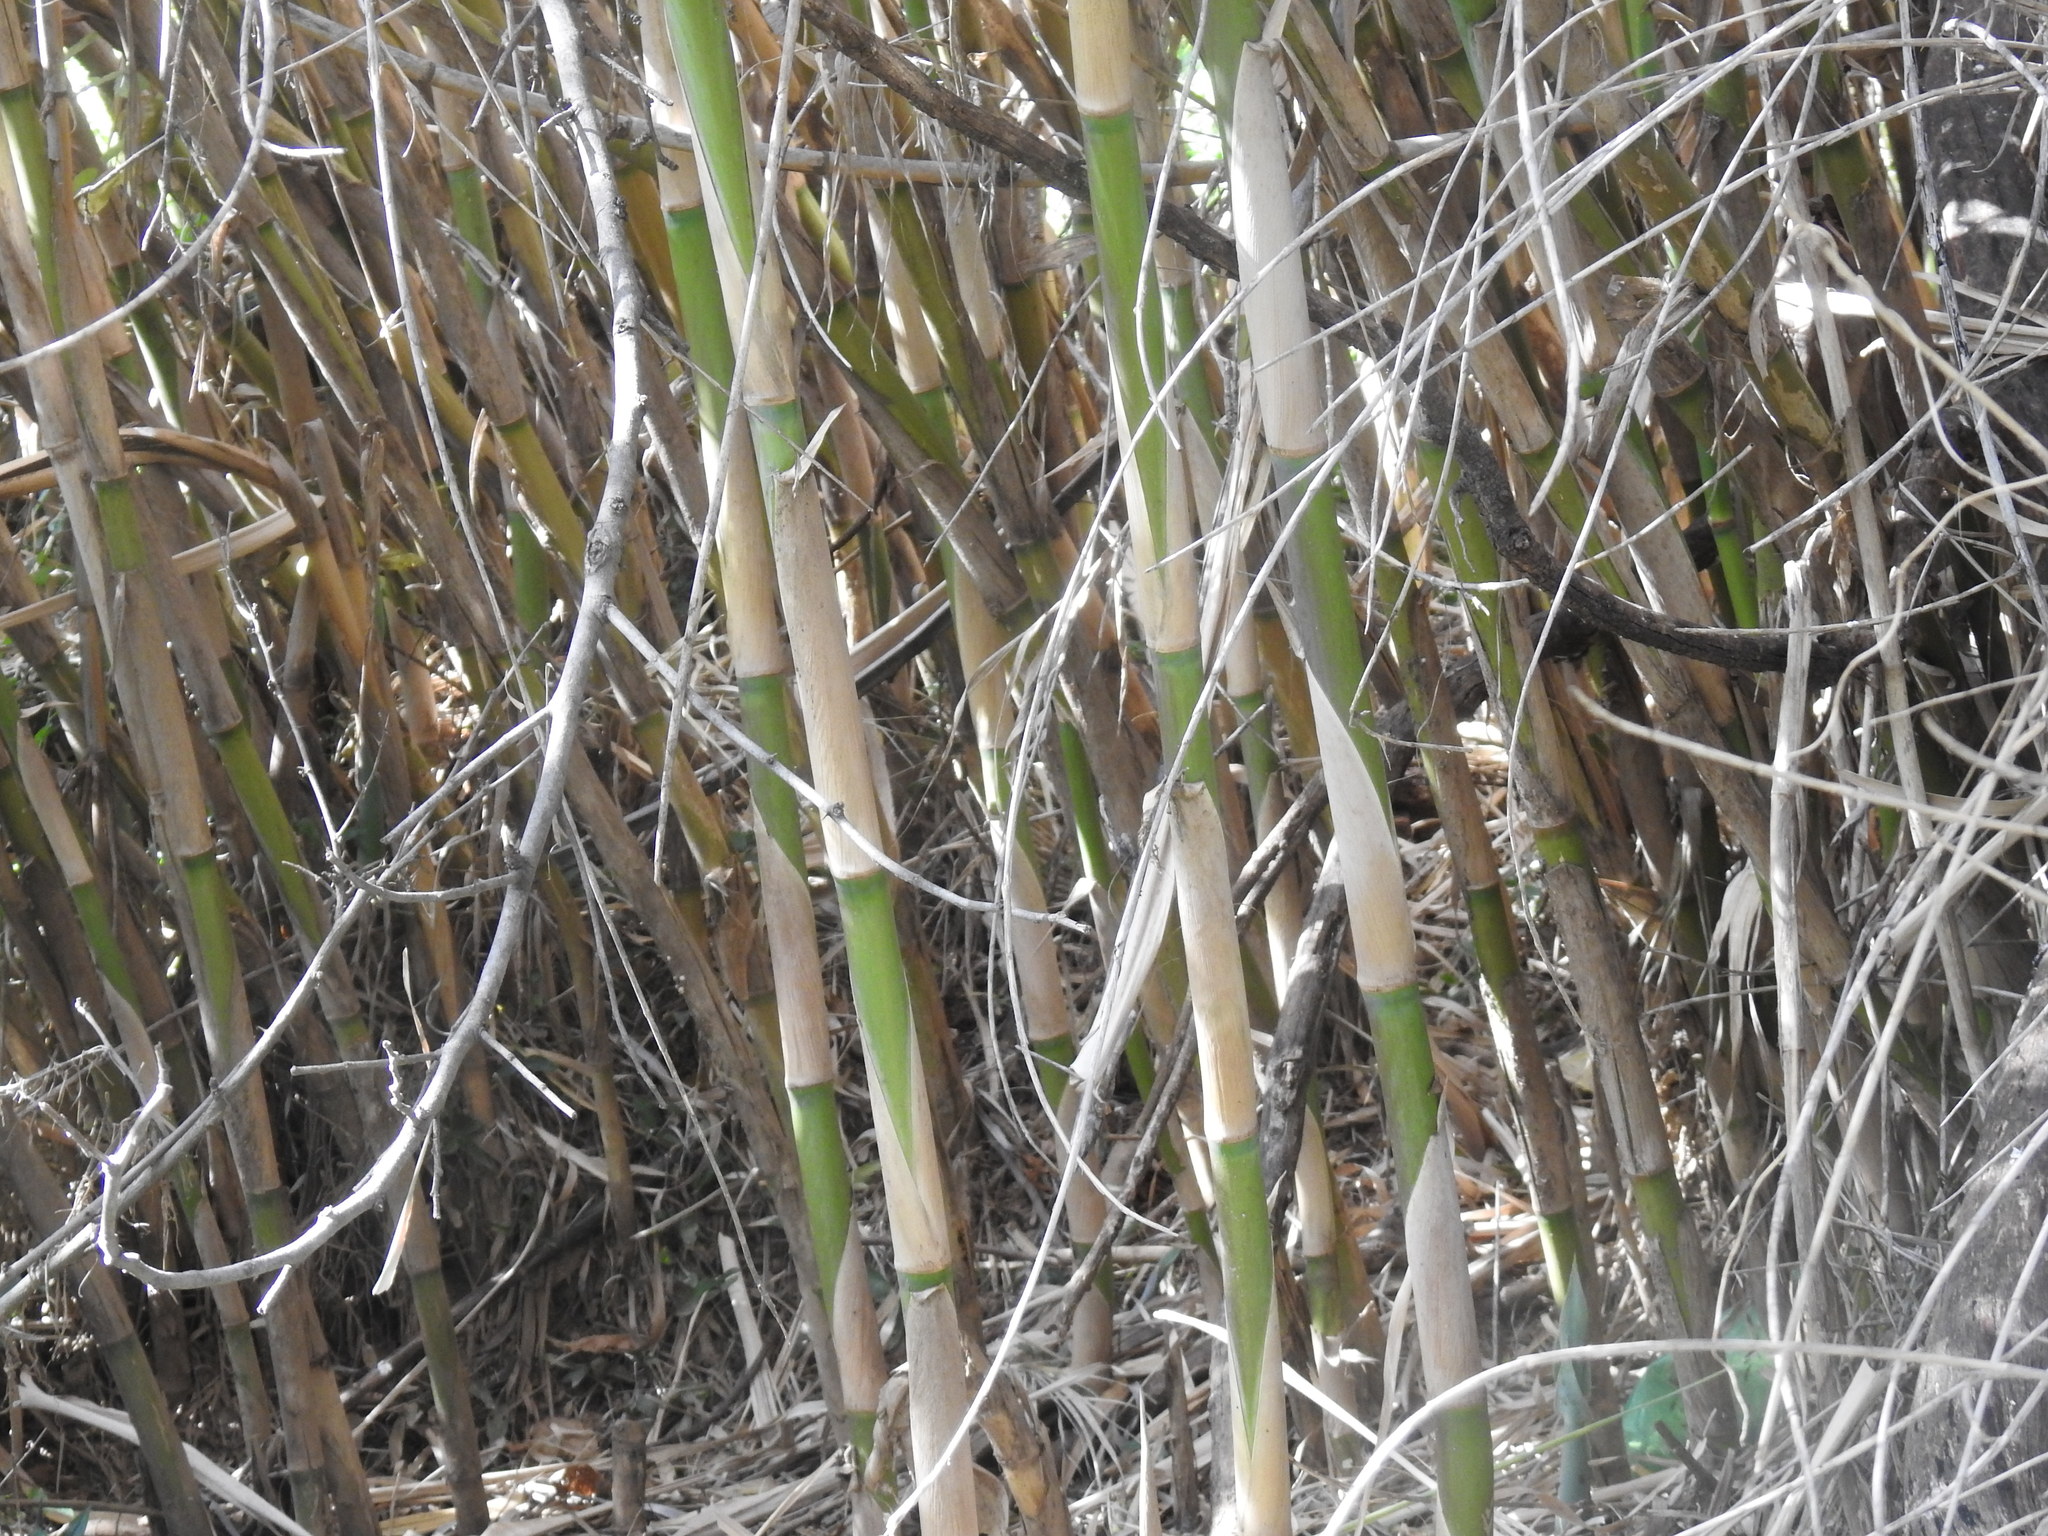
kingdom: Plantae
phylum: Tracheophyta
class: Liliopsida
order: Poales
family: Poaceae
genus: Arundo
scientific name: Arundo donax
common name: Giant reed
